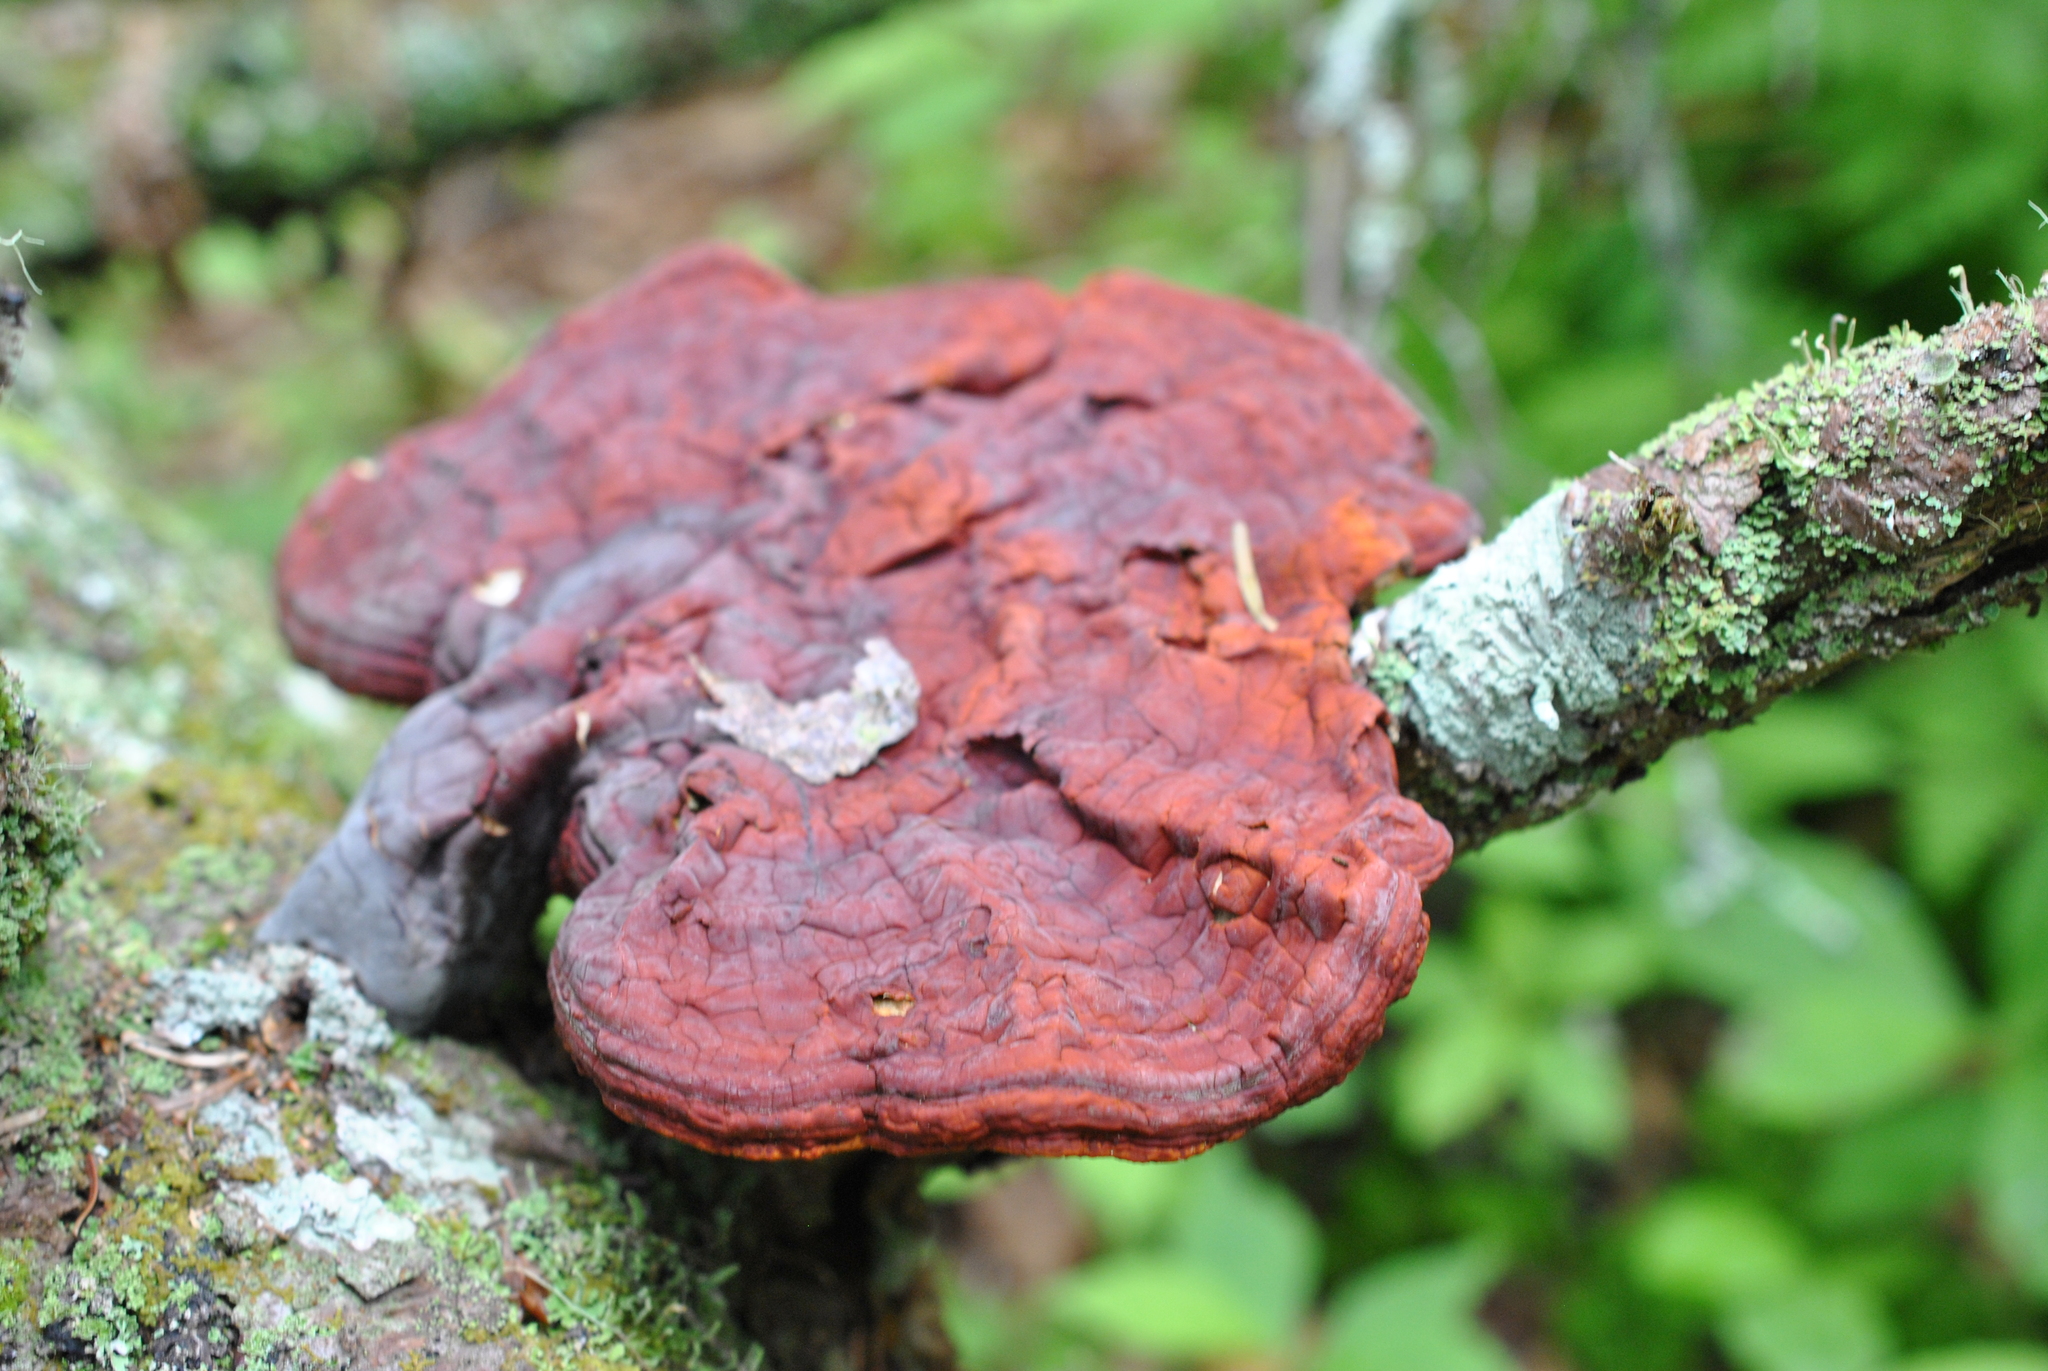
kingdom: Fungi
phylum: Basidiomycota
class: Agaricomycetes
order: Polyporales
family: Polyporaceae
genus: Ganoderma
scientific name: Ganoderma tsugae
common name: Hemlock varnish shelf
